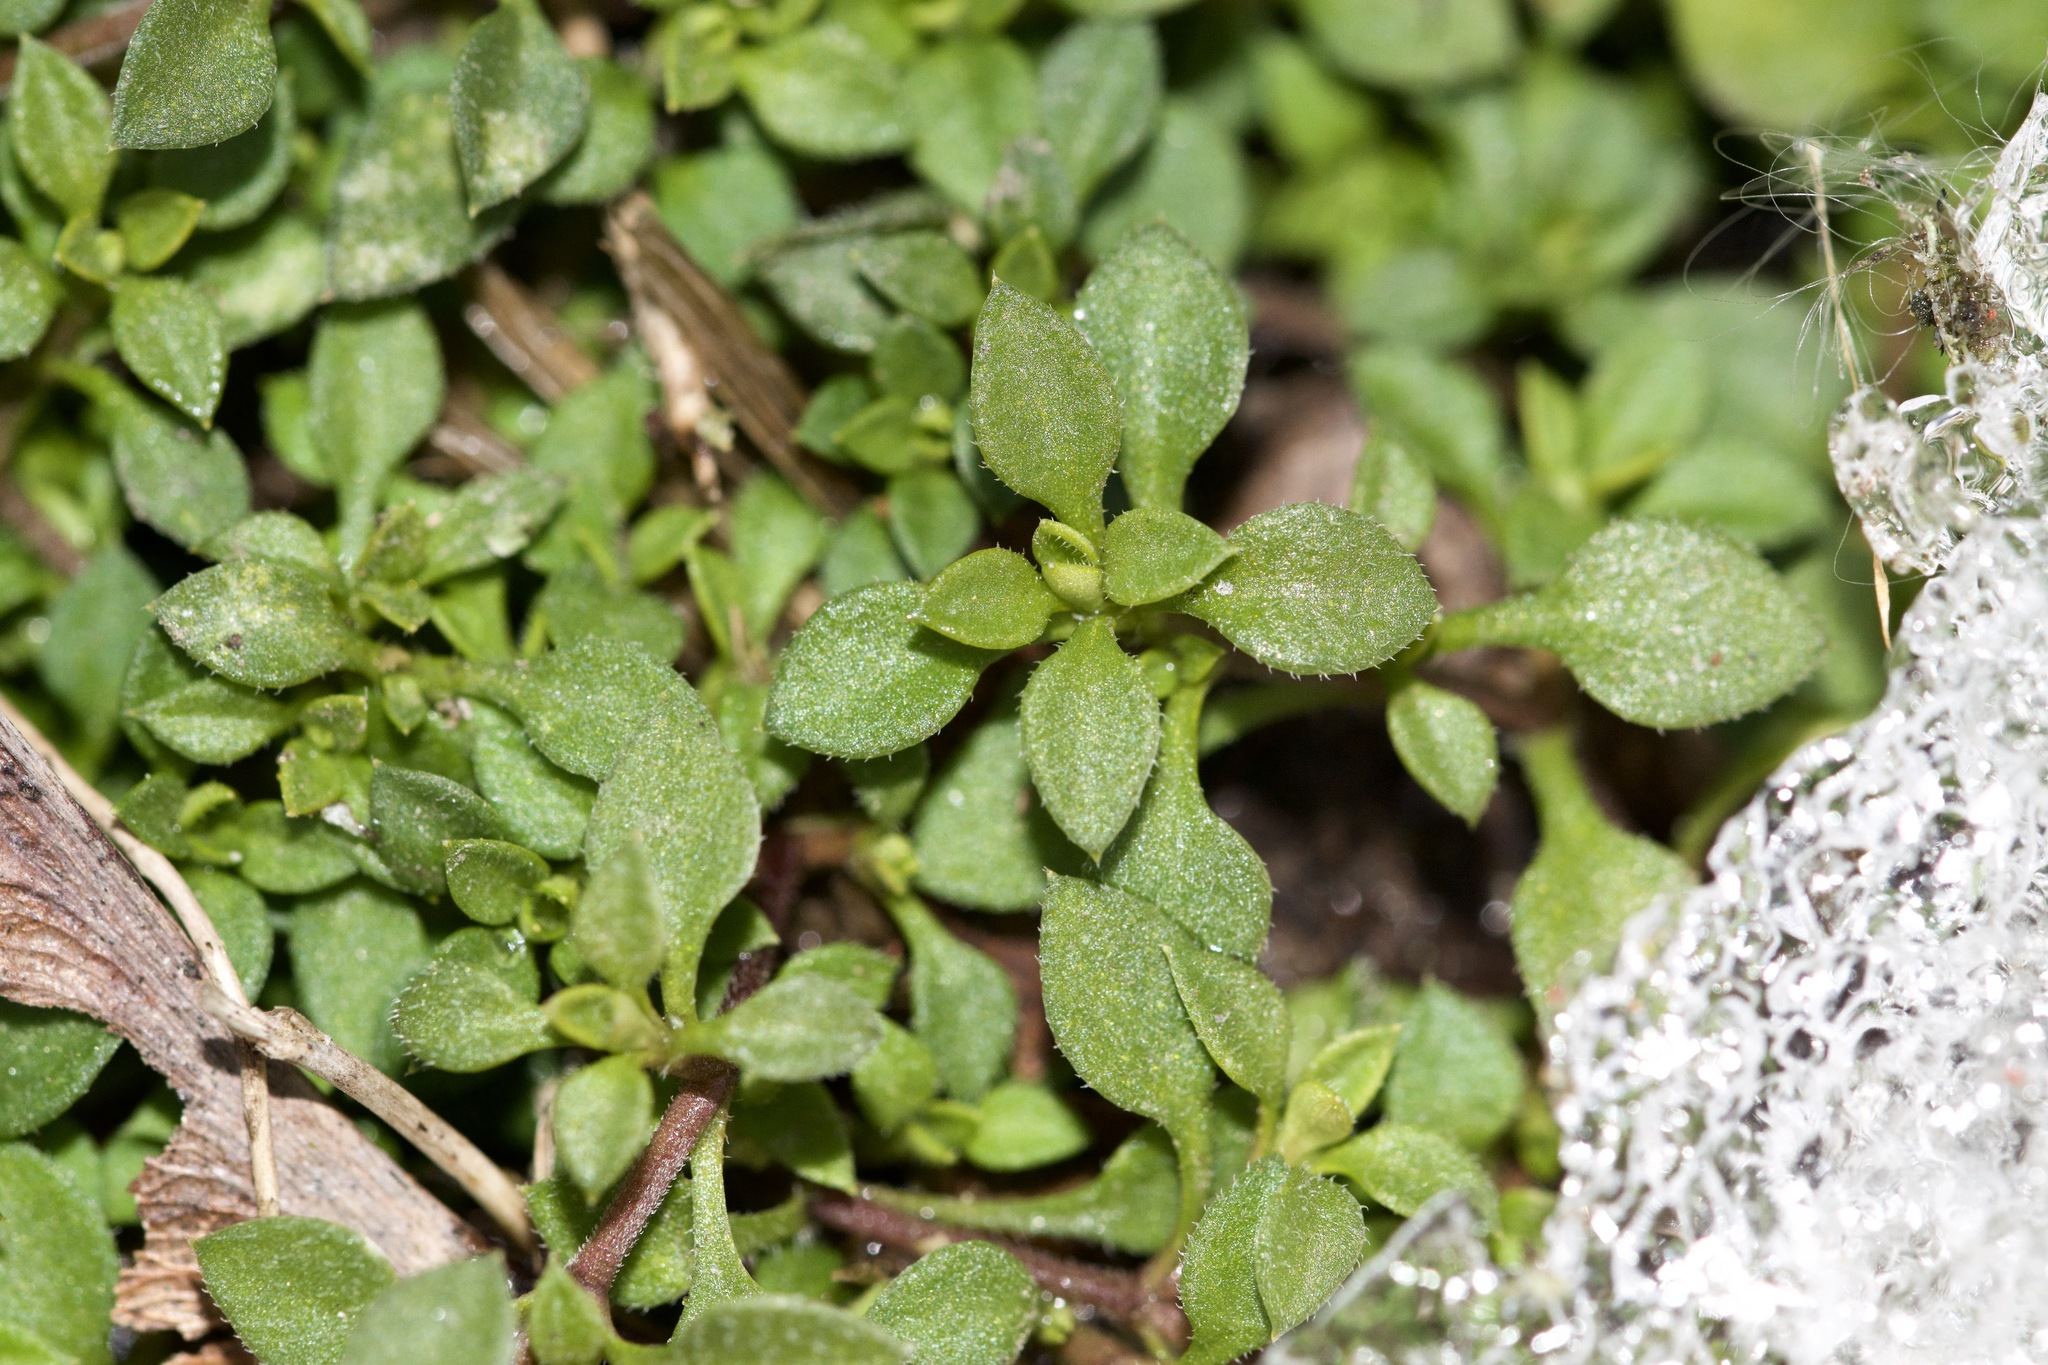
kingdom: Plantae
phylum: Tracheophyta
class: Magnoliopsida
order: Caryophyllales
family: Caryophyllaceae
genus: Stellaria
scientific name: Stellaria media
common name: Common chickweed
